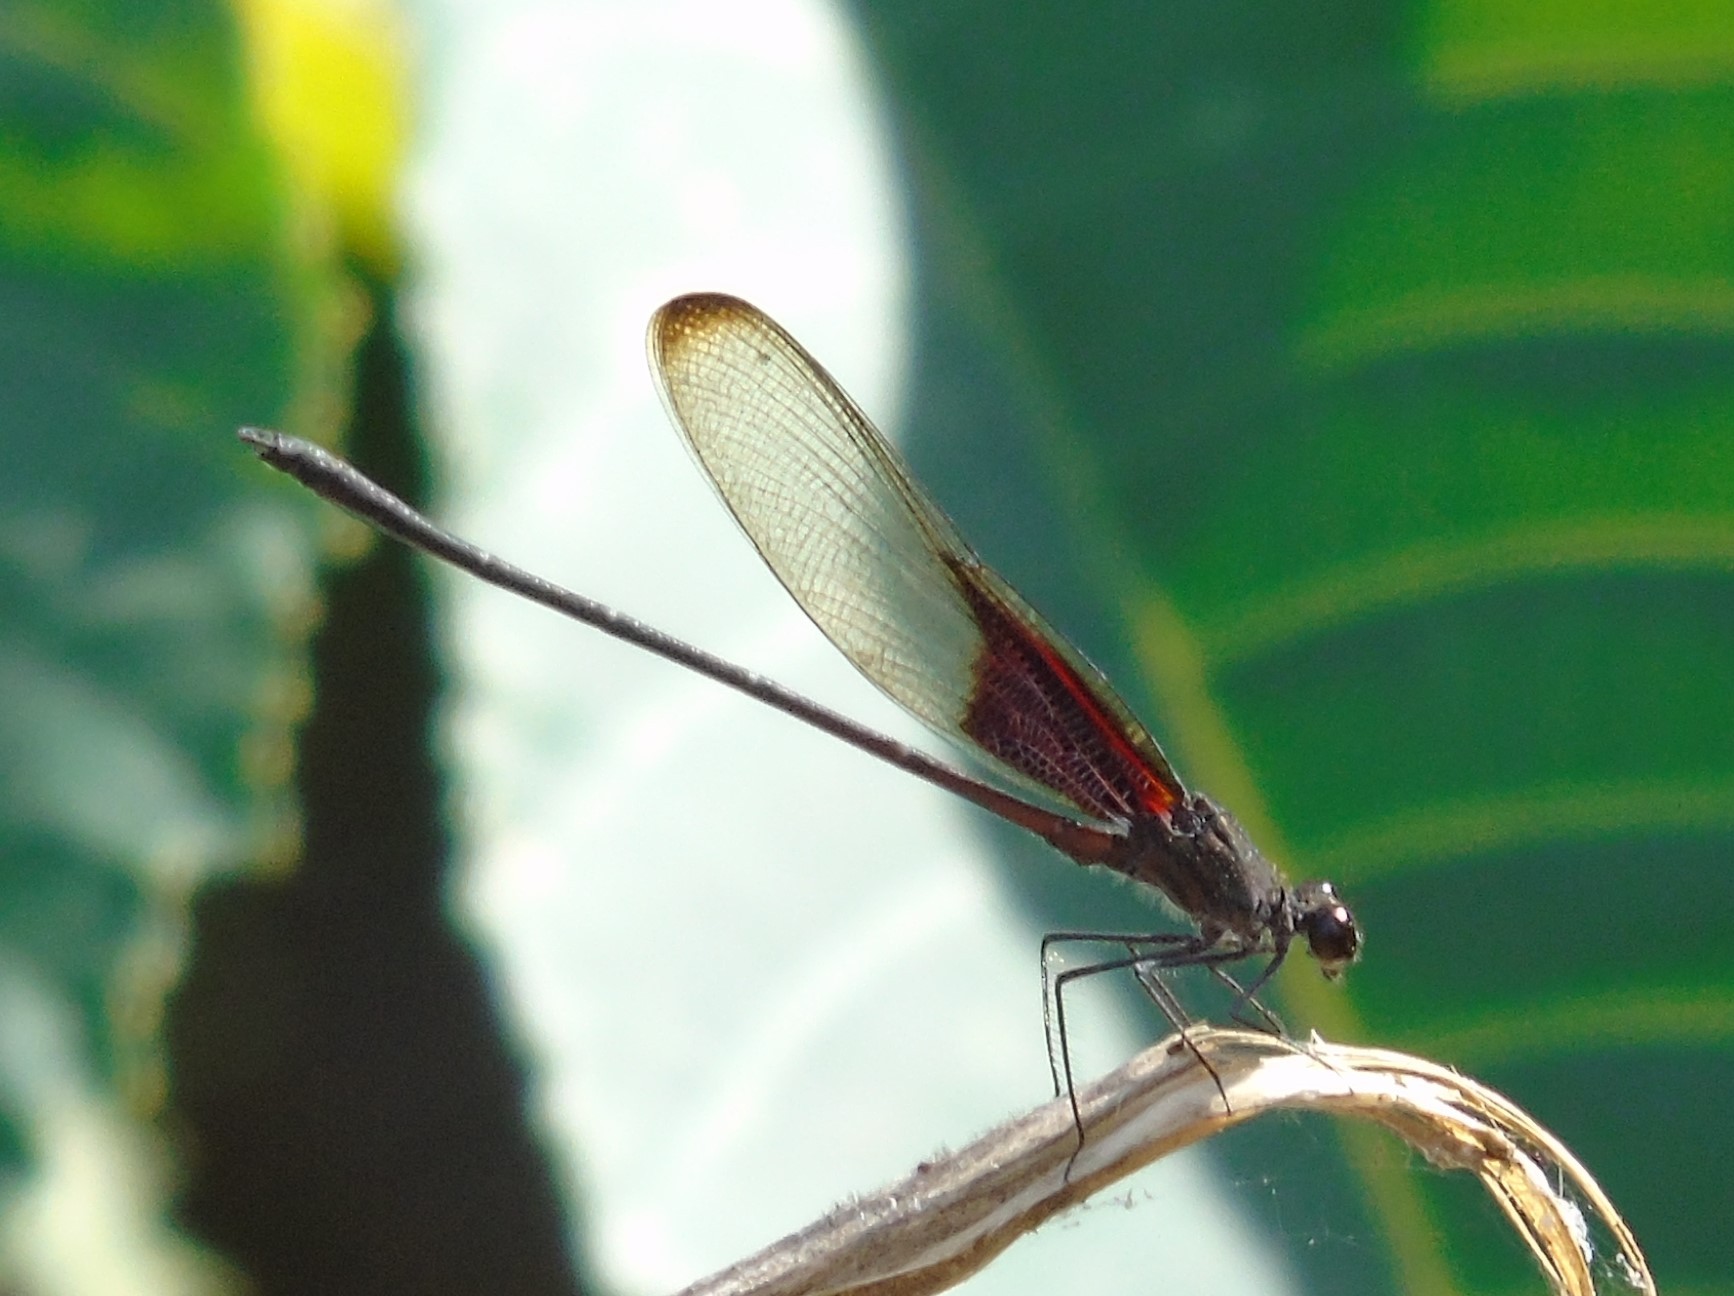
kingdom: Animalia
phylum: Arthropoda
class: Insecta
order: Odonata
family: Calopterygidae
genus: Hetaerina
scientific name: Hetaerina titia
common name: Smoky rubyspot
